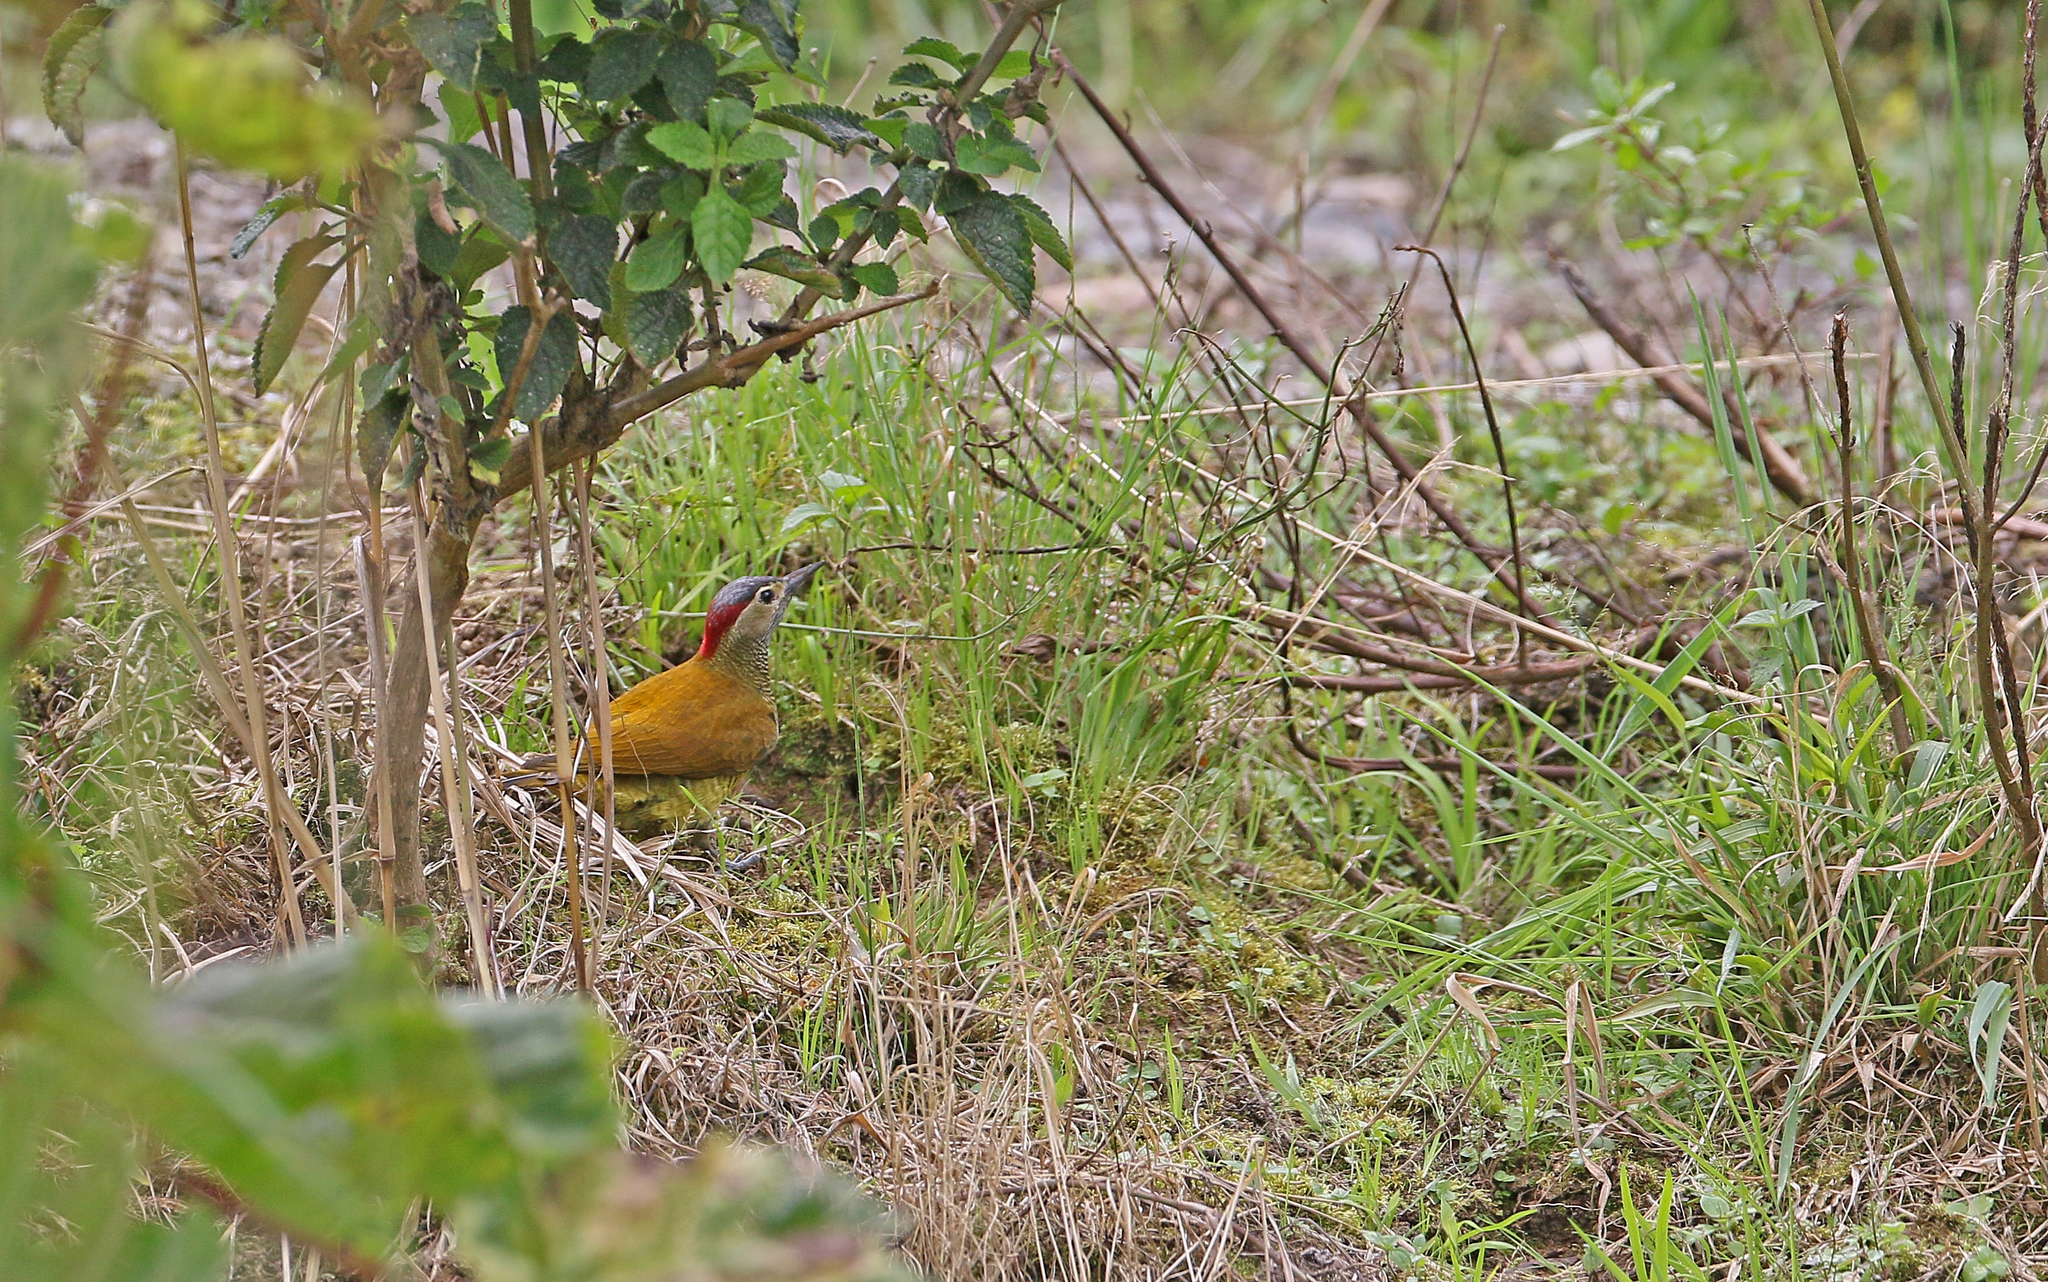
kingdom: Animalia
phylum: Chordata
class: Aves
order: Piciformes
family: Picidae
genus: Colaptes
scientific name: Colaptes rubiginosus
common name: Golden-olive woodpecker
